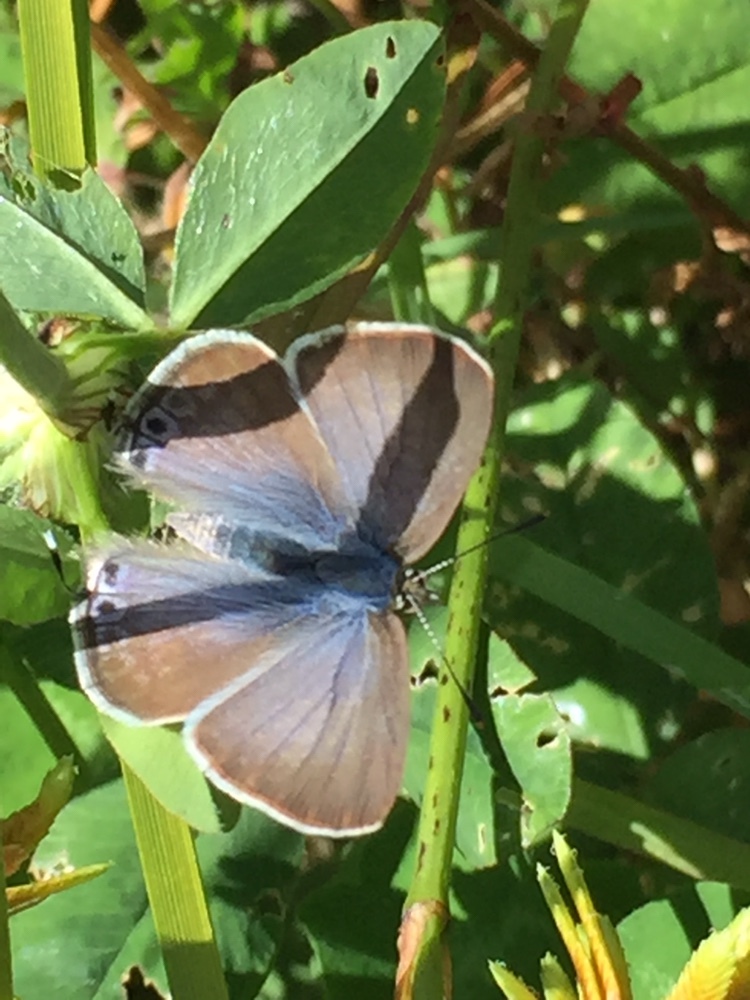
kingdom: Animalia
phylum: Arthropoda
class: Insecta
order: Lepidoptera
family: Lycaenidae
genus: Lampides
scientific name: Lampides boeticus
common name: Long-tailed blue
